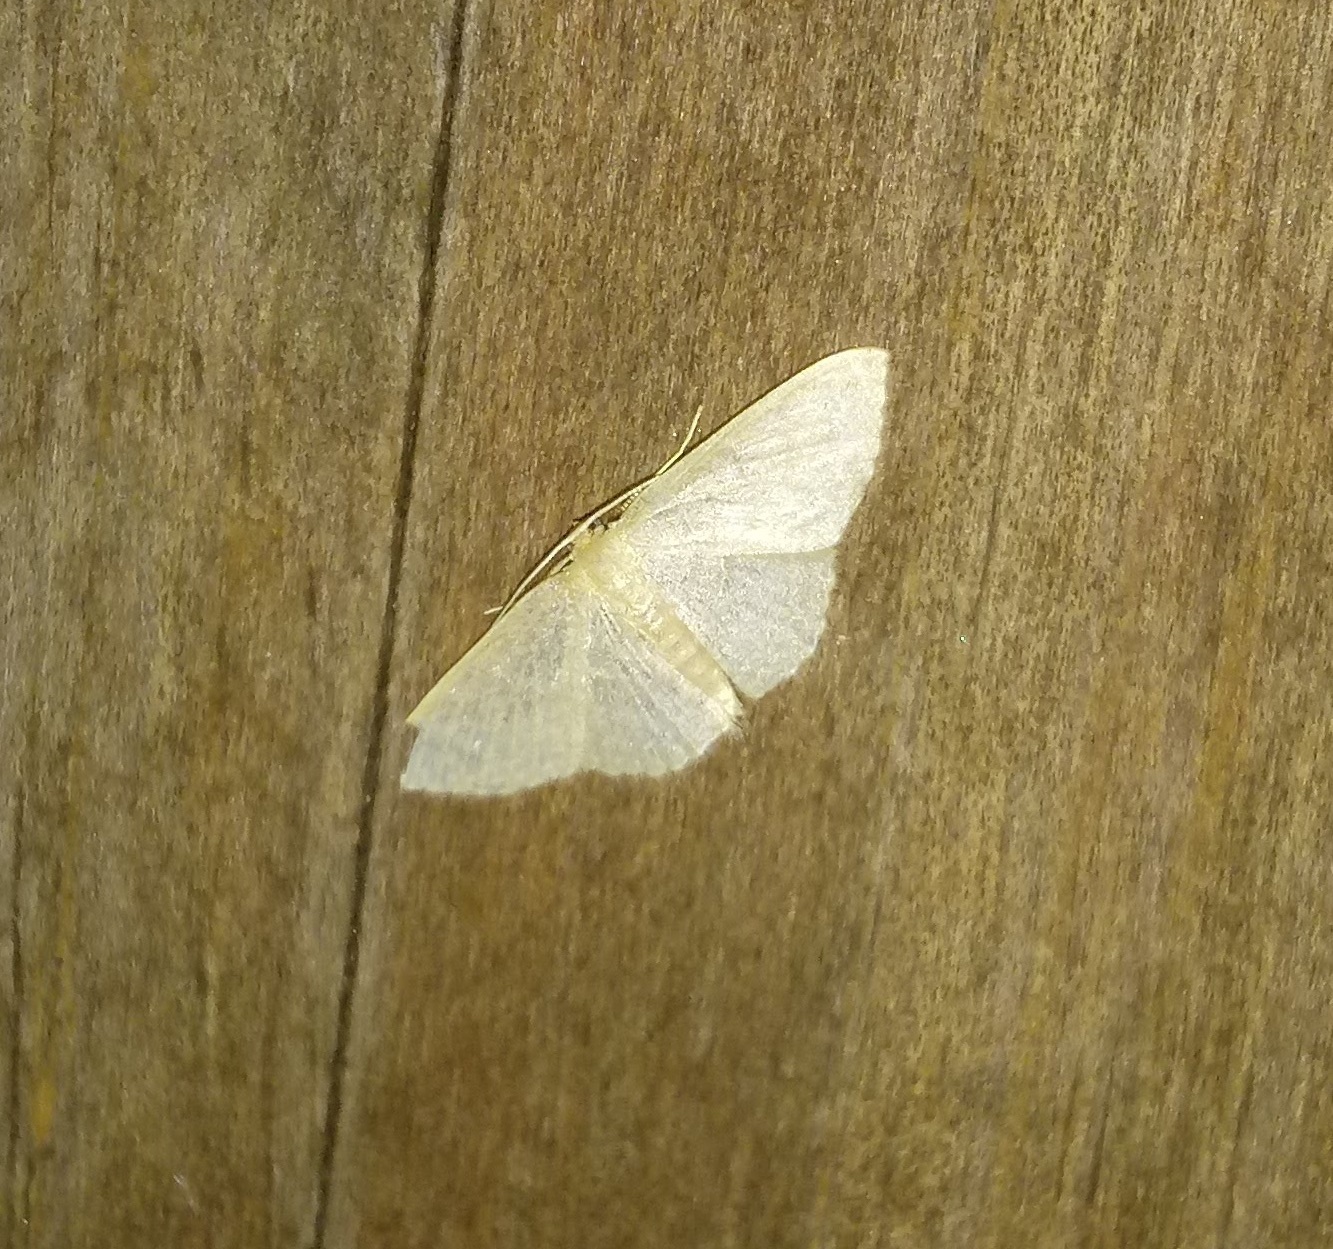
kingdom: Animalia
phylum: Arthropoda
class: Insecta
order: Lepidoptera
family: Geometridae
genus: Pleuroprucha
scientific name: Pleuroprucha insulsaria
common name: Common tan wave
